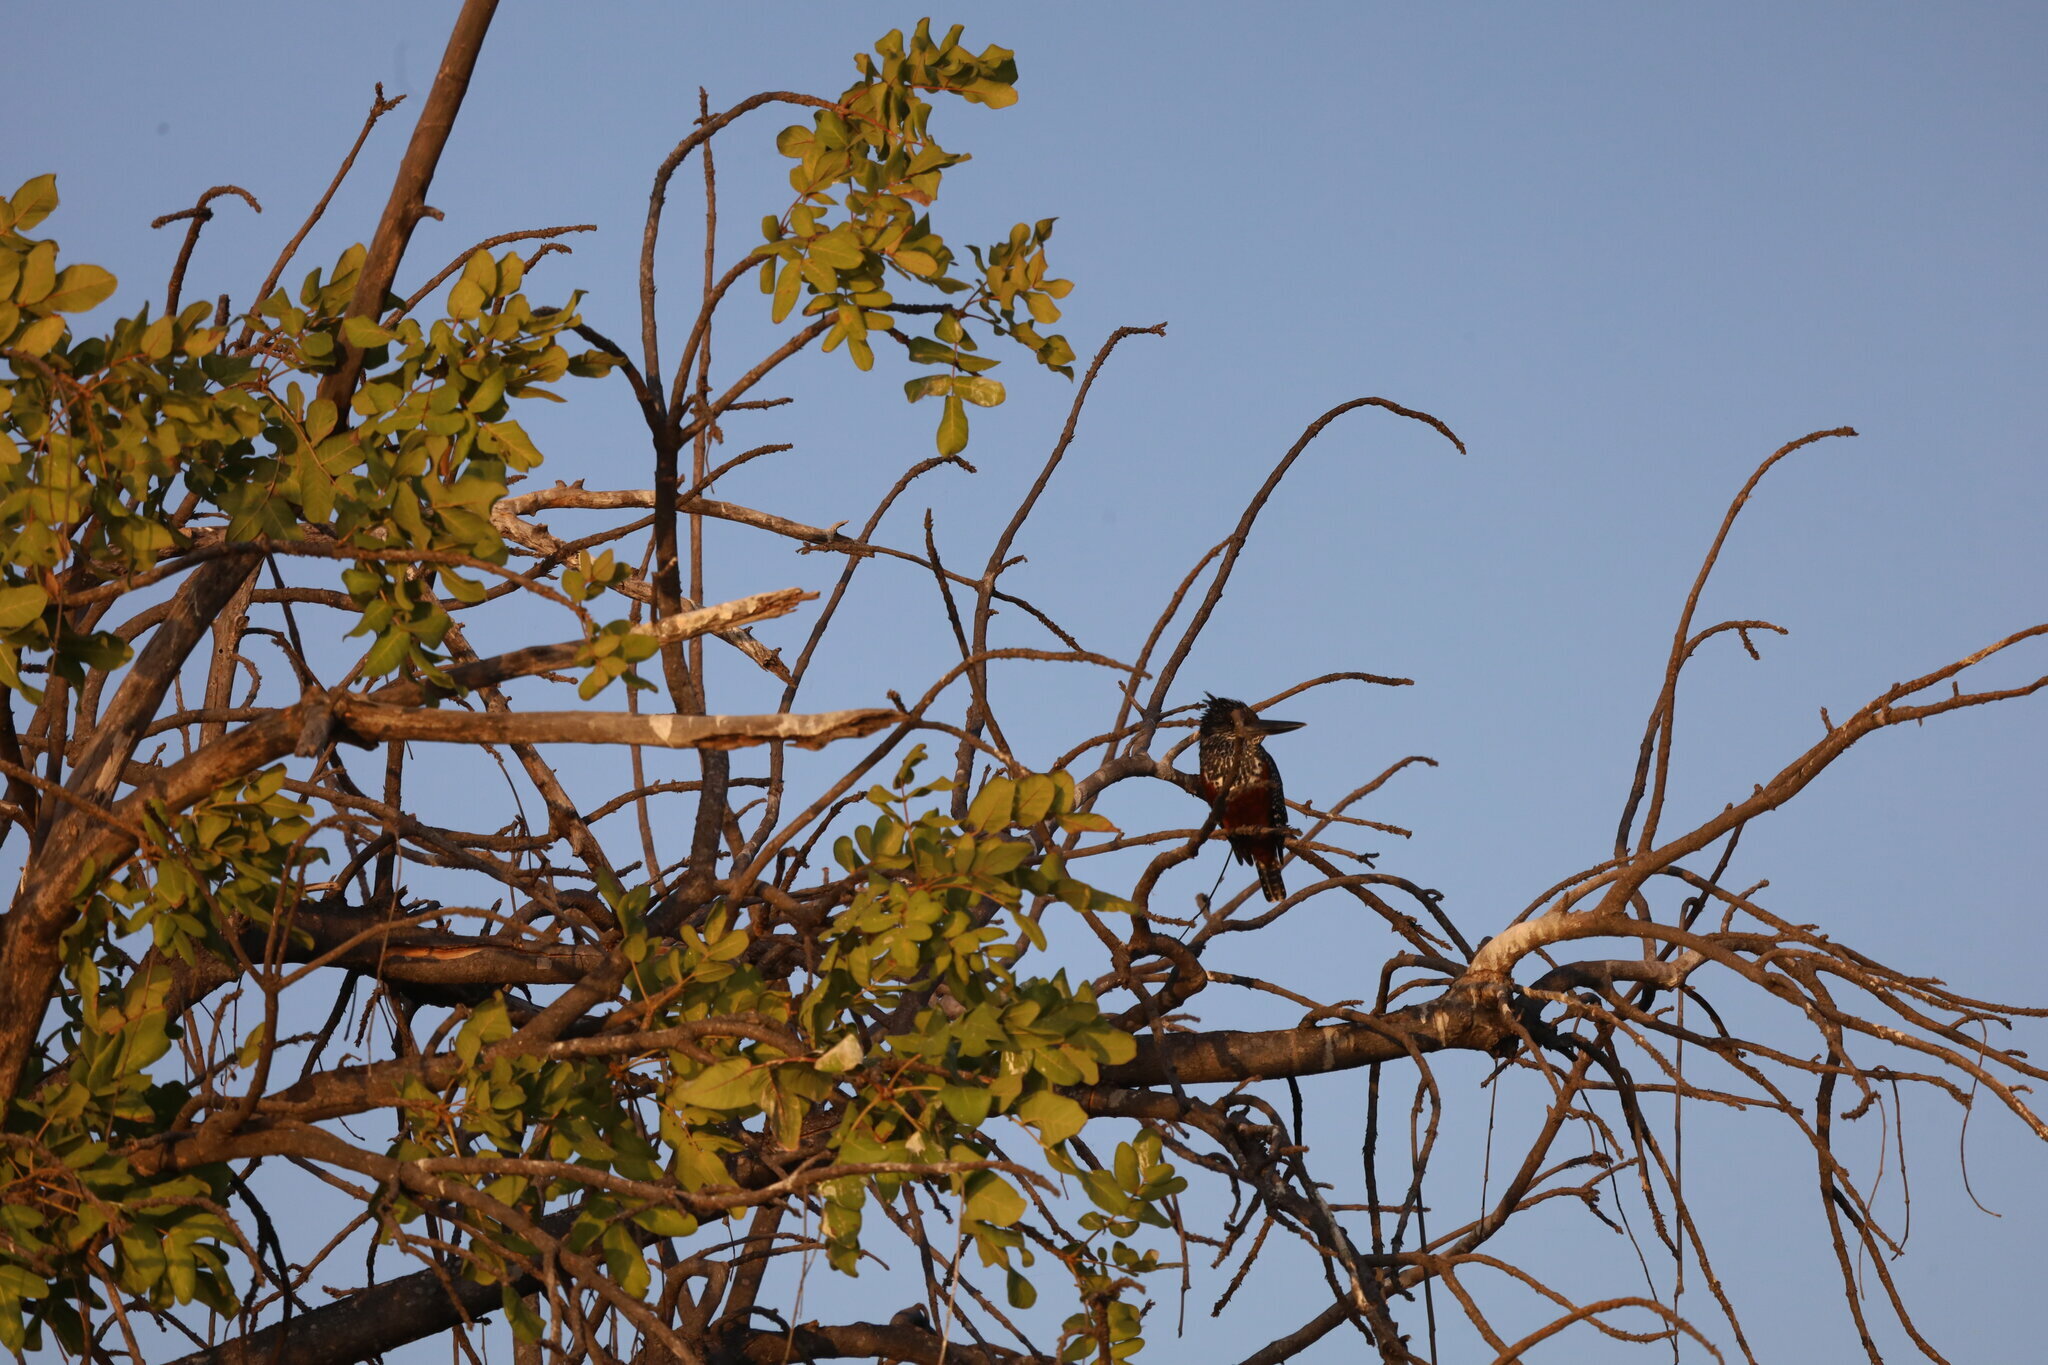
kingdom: Animalia
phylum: Chordata
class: Aves
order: Coraciiformes
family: Alcedinidae
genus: Megaceryle
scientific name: Megaceryle maxima
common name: Giant kingfisher
